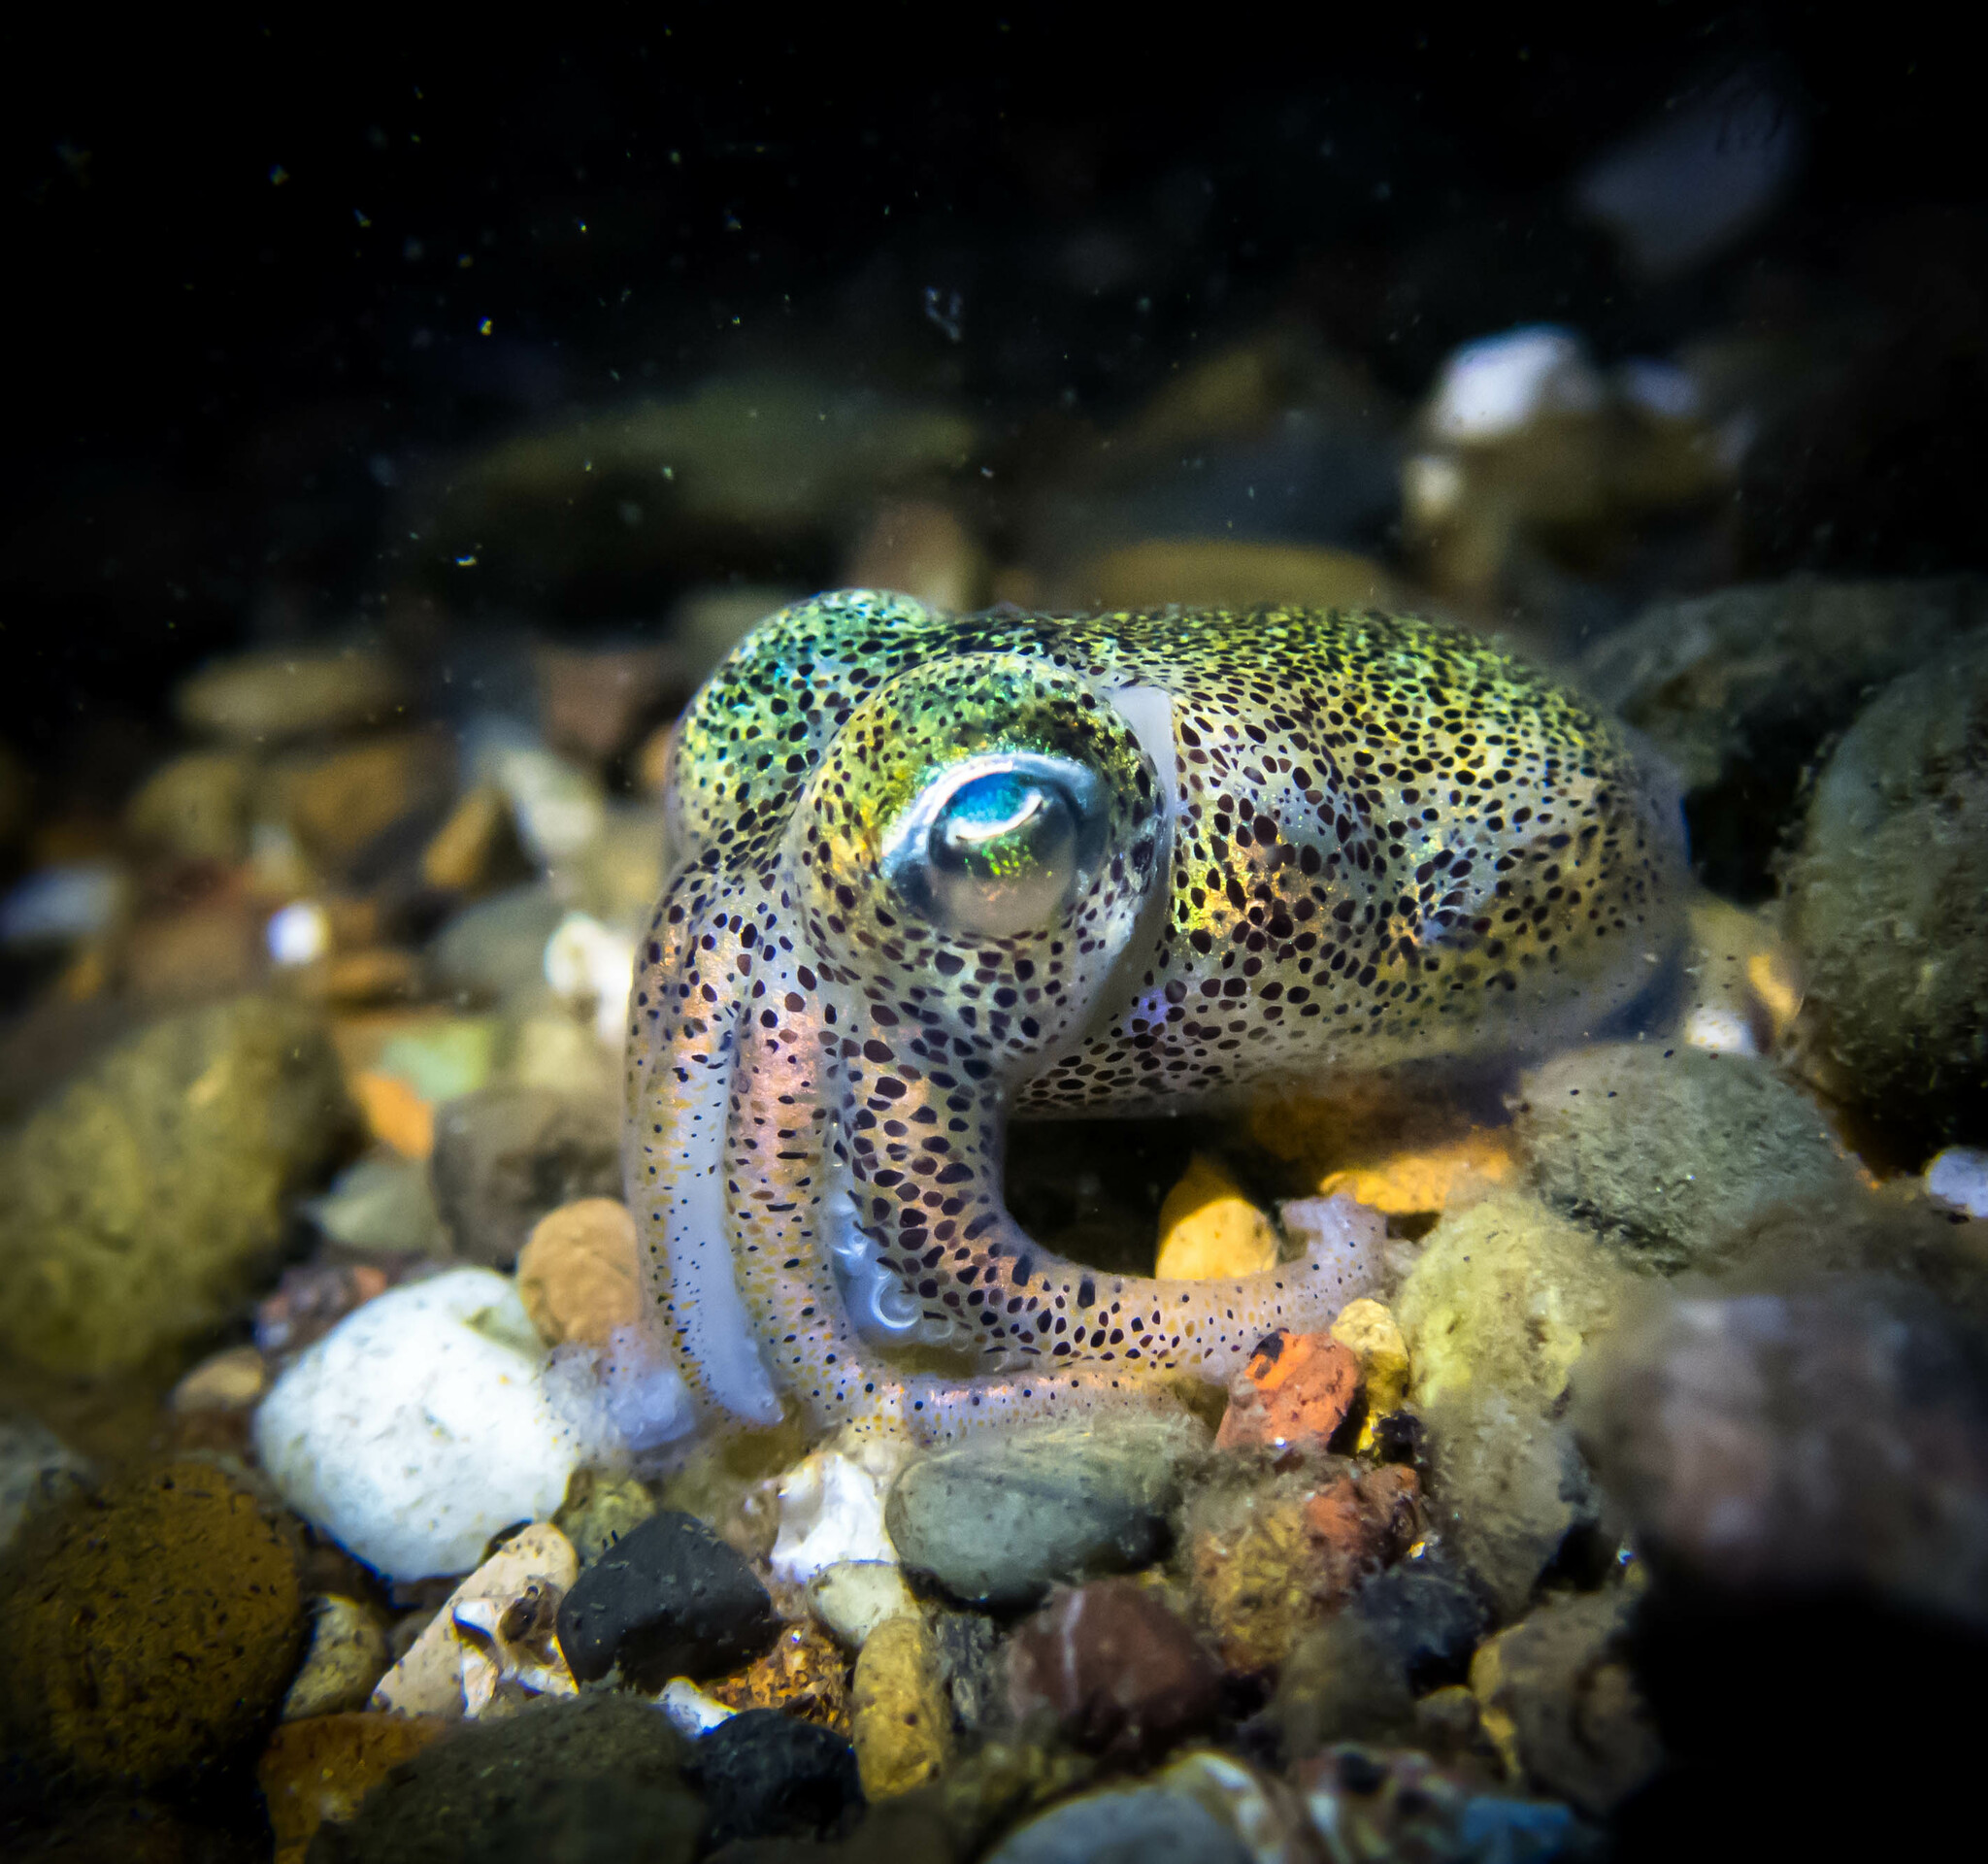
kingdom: Animalia
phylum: Mollusca
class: Cephalopoda
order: Sepiida
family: Sepiolidae
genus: Euprymna
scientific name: Euprymna tasmanica
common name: Southern bobtail squid
